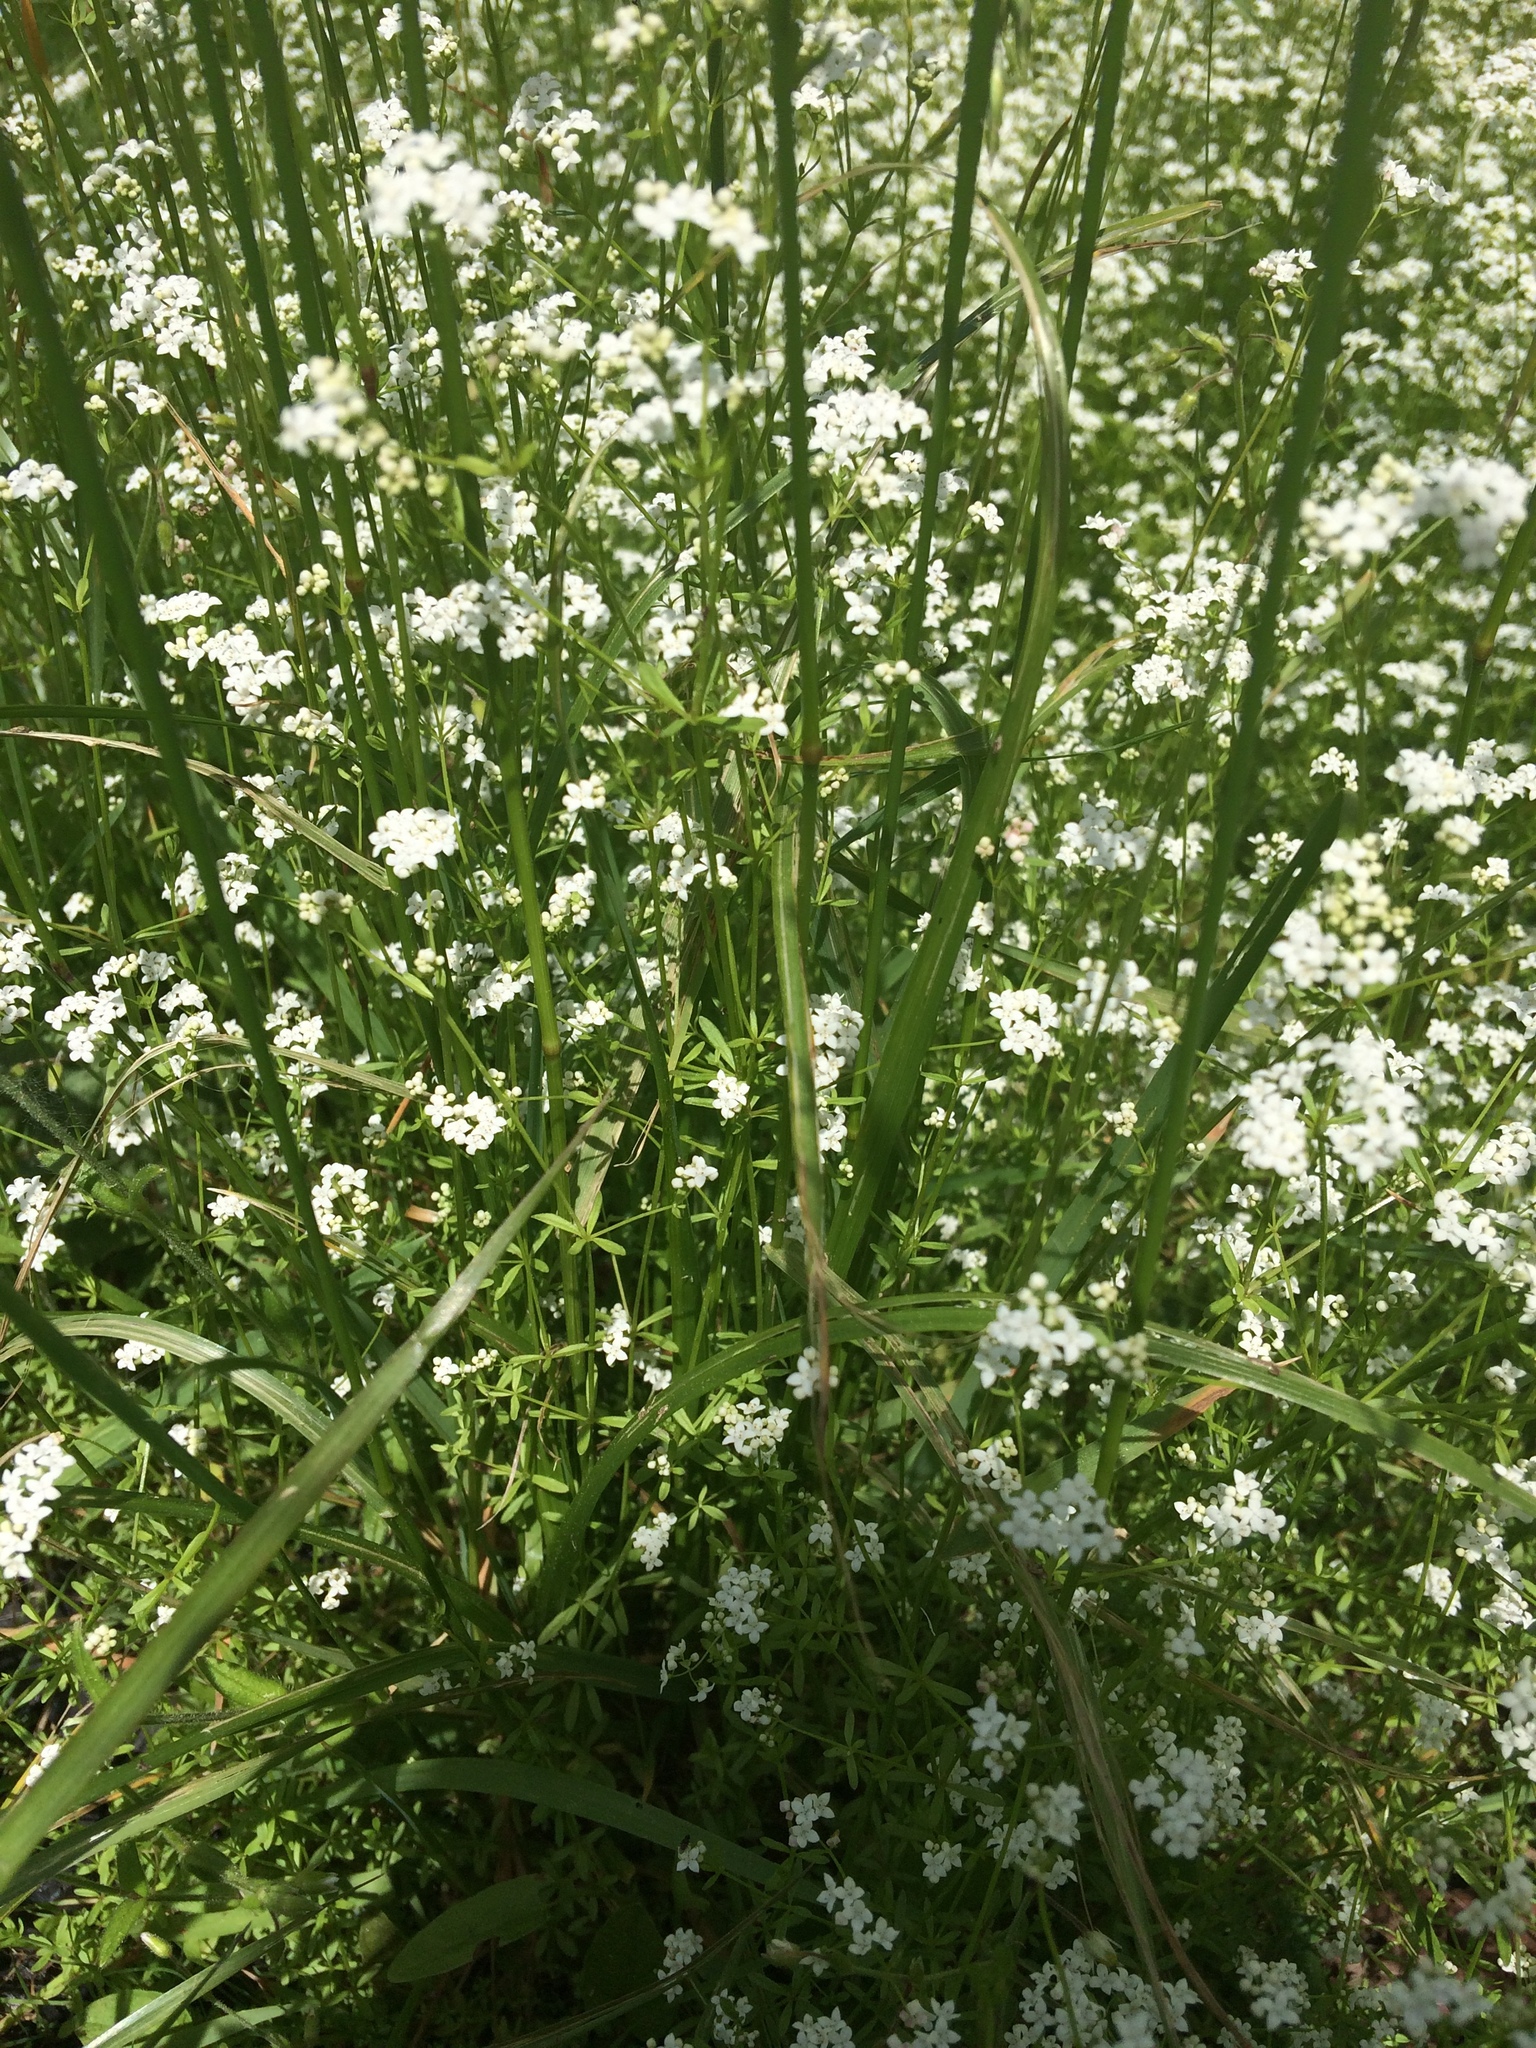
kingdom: Plantae
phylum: Tracheophyta
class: Magnoliopsida
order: Gentianales
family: Rubiaceae
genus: Galium
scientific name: Galium palustre
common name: Common marsh-bedstraw
